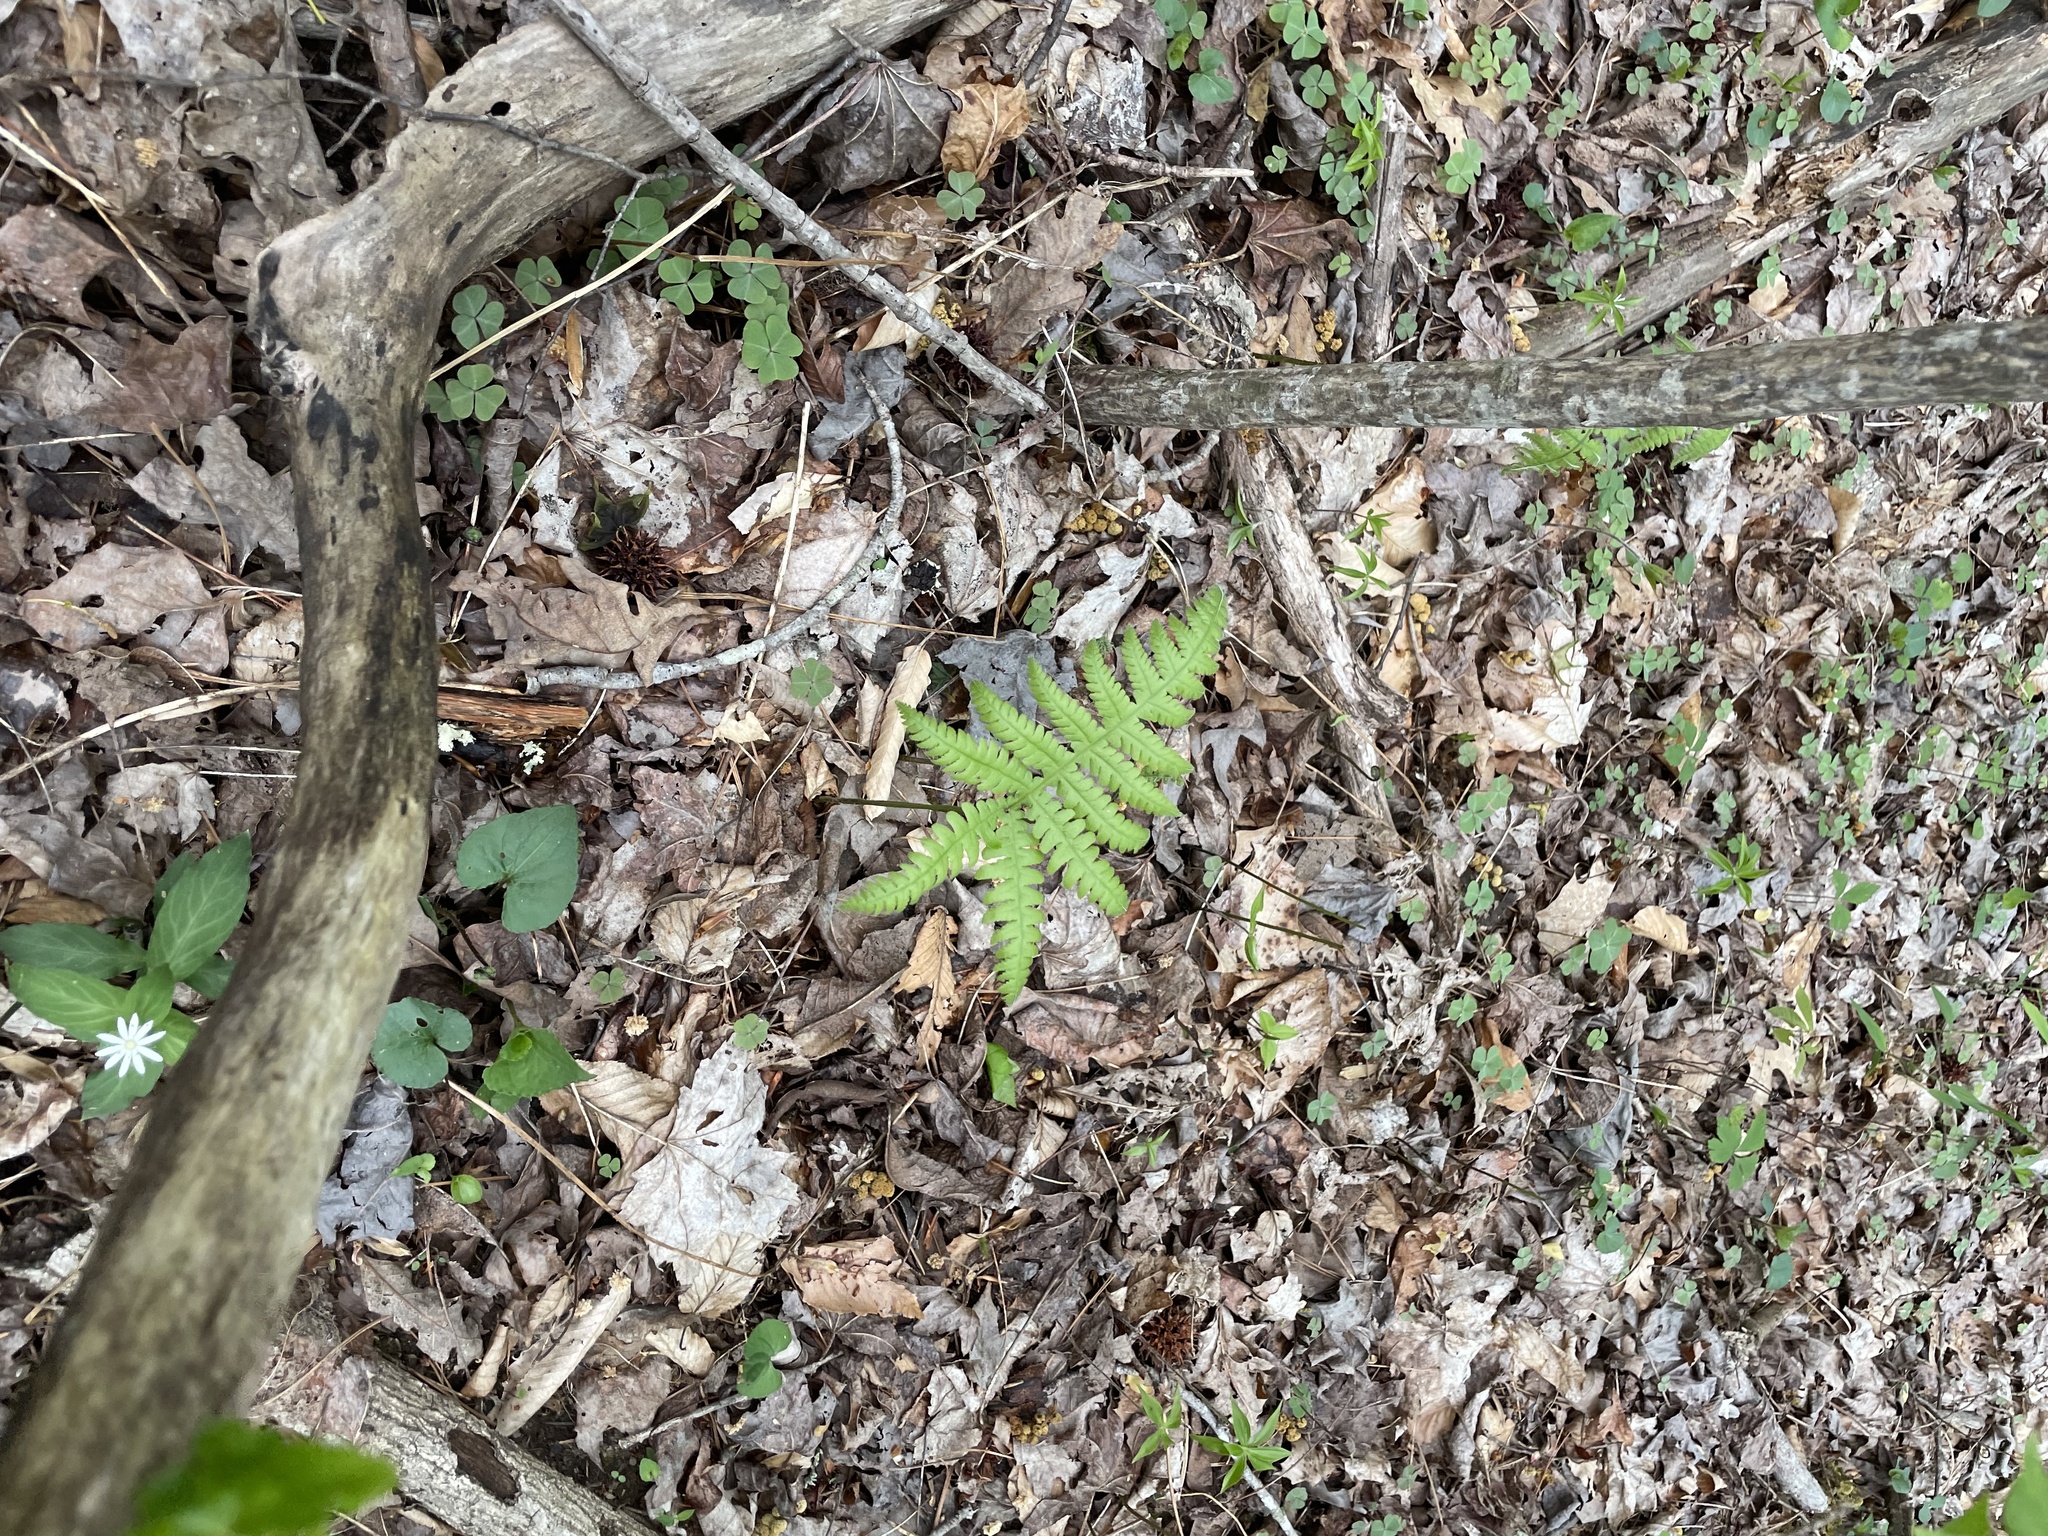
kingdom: Plantae
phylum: Tracheophyta
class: Polypodiopsida
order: Polypodiales
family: Thelypteridaceae
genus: Phegopteris
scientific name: Phegopteris hexagonoptera
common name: Broad beech fern
